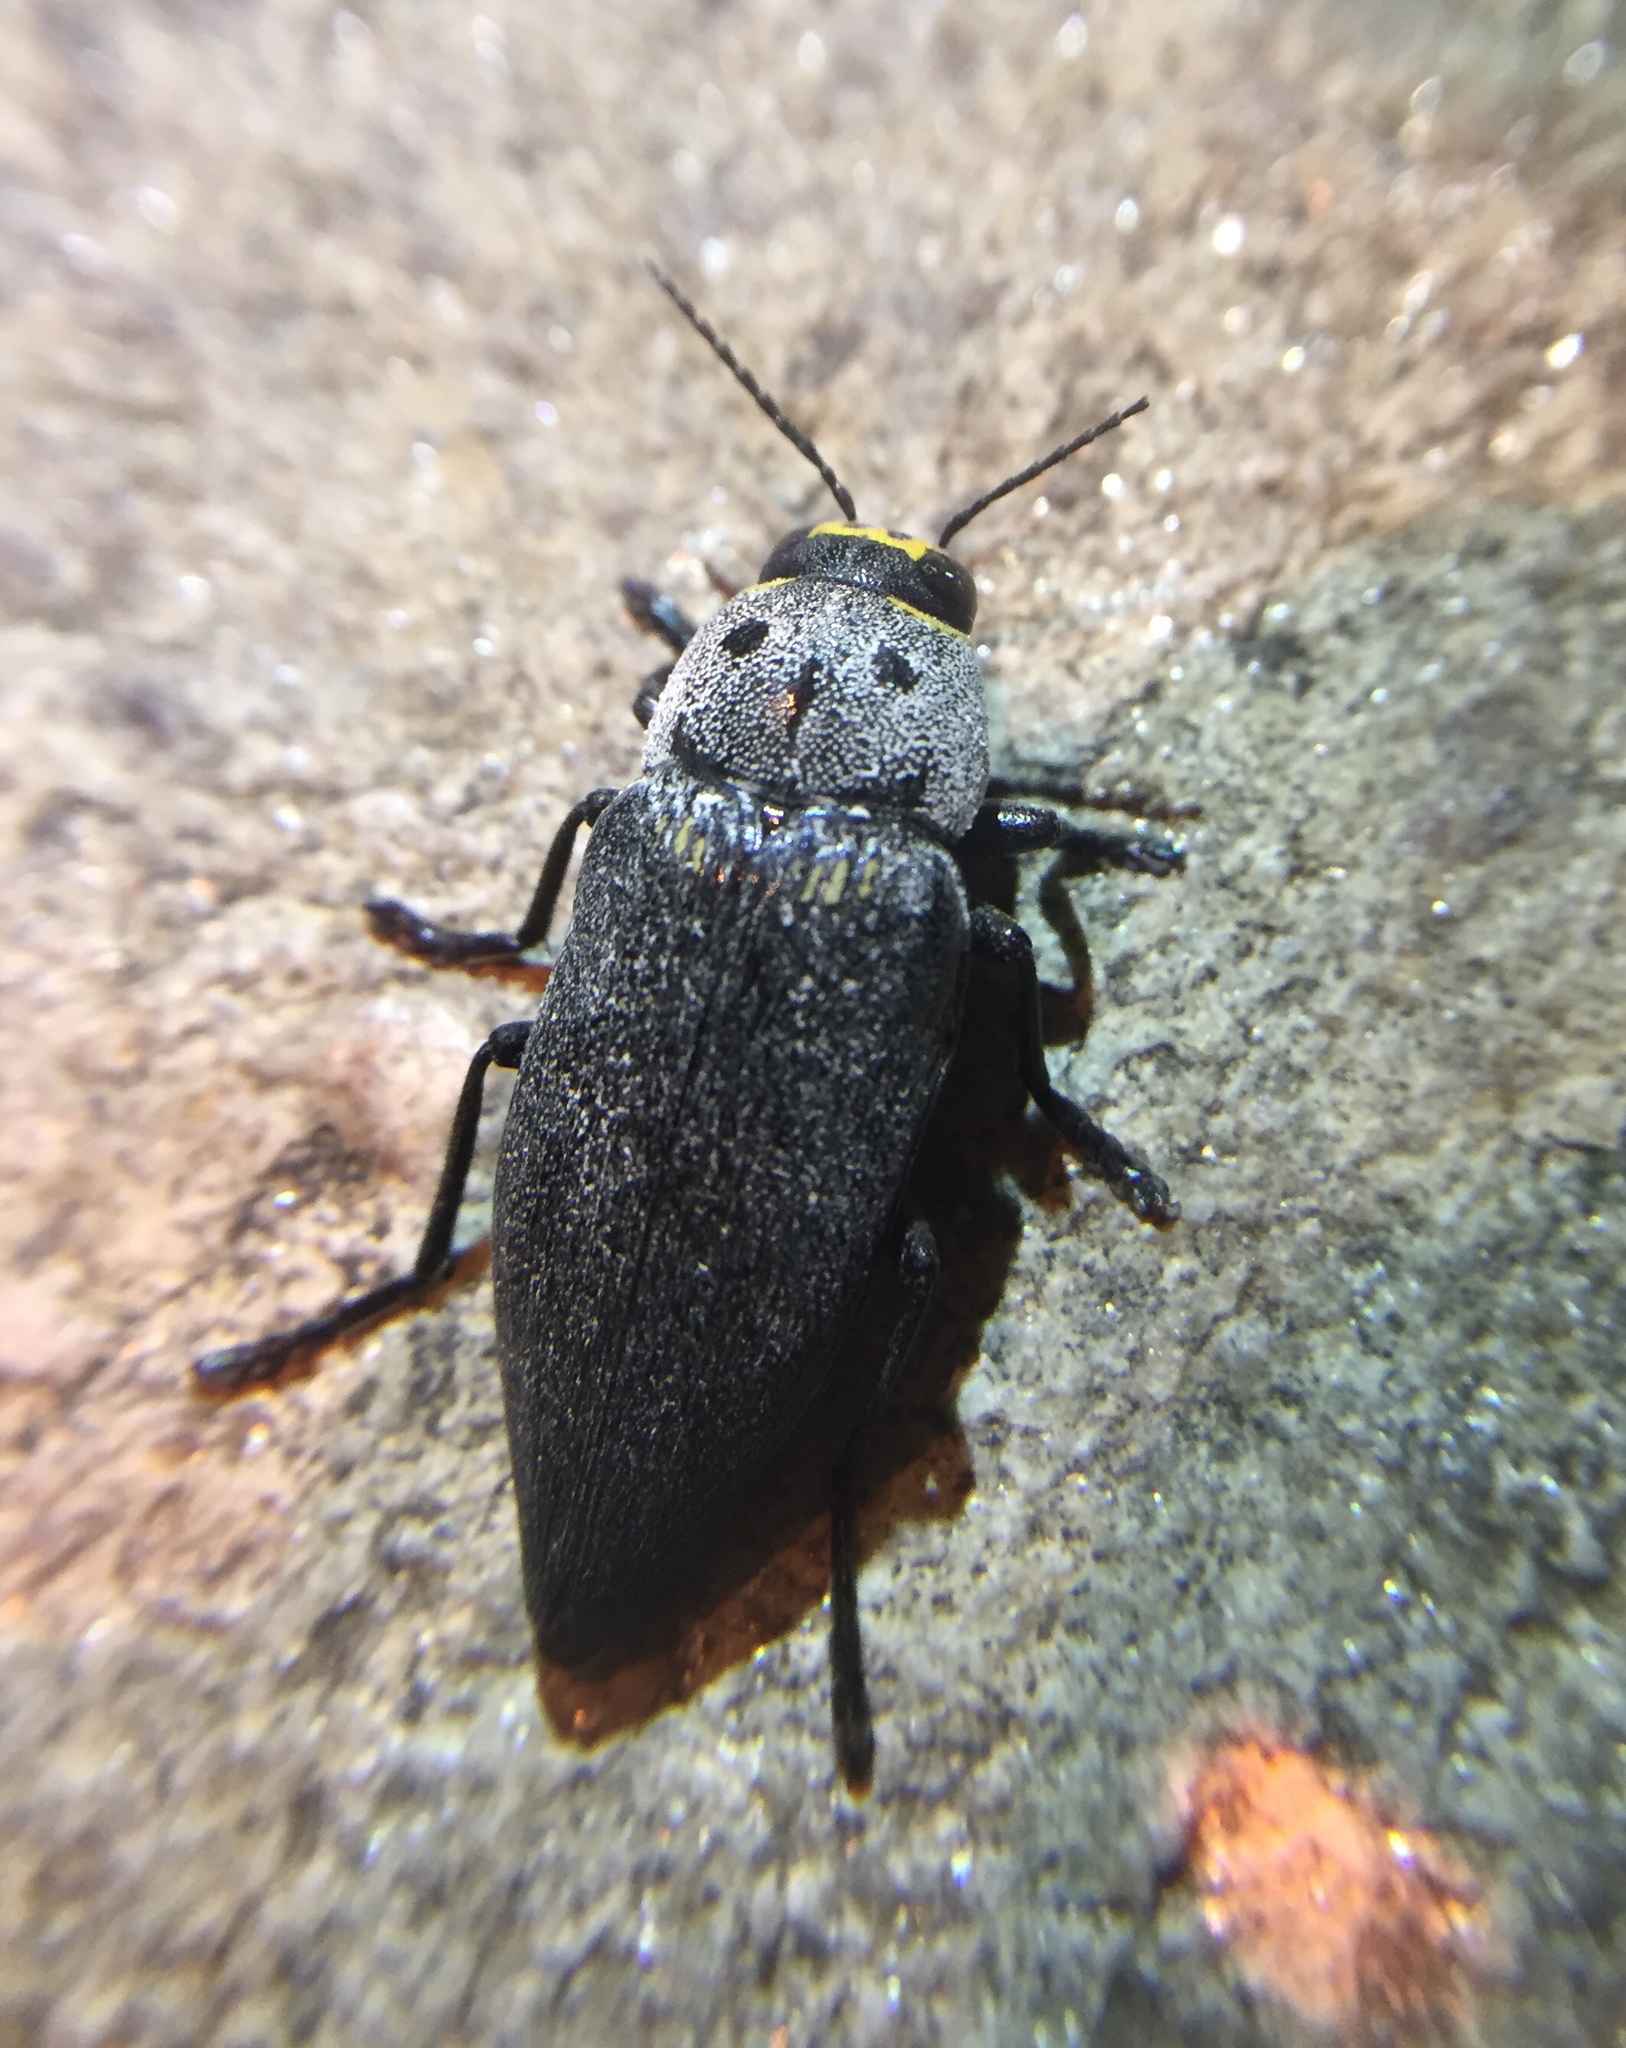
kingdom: Animalia
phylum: Arthropoda
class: Insecta
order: Coleoptera
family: Buprestidae
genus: Buprestis
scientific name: Buprestis cupressi
